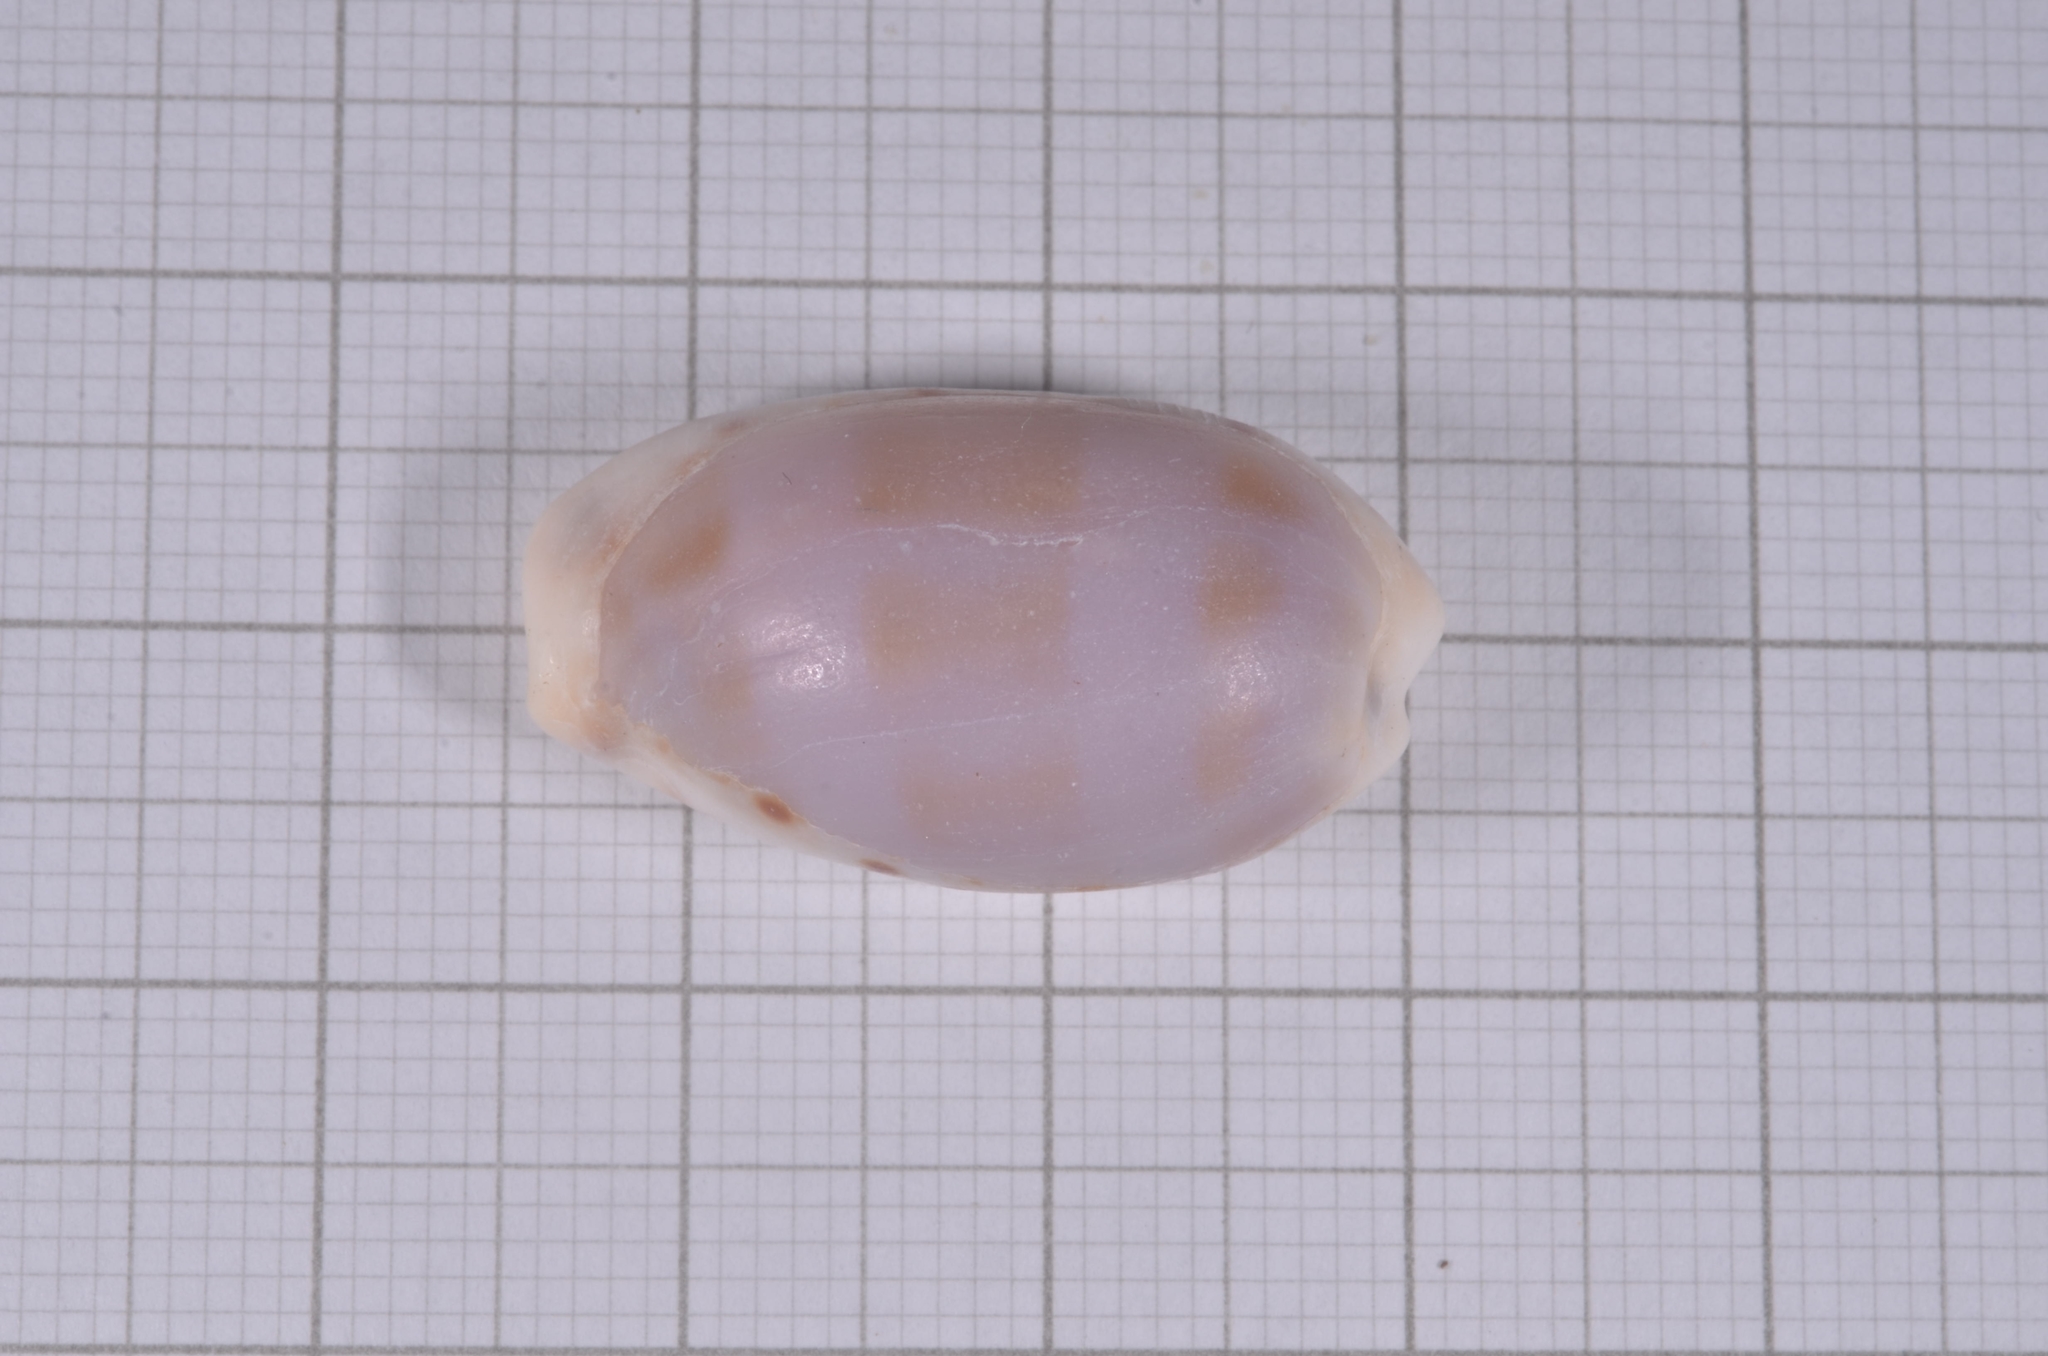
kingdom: Animalia
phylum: Mollusca
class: Gastropoda
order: Littorinimorpha
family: Cypraeidae
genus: Erronea
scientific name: Erronea caurica
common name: Thick-edged cowry
